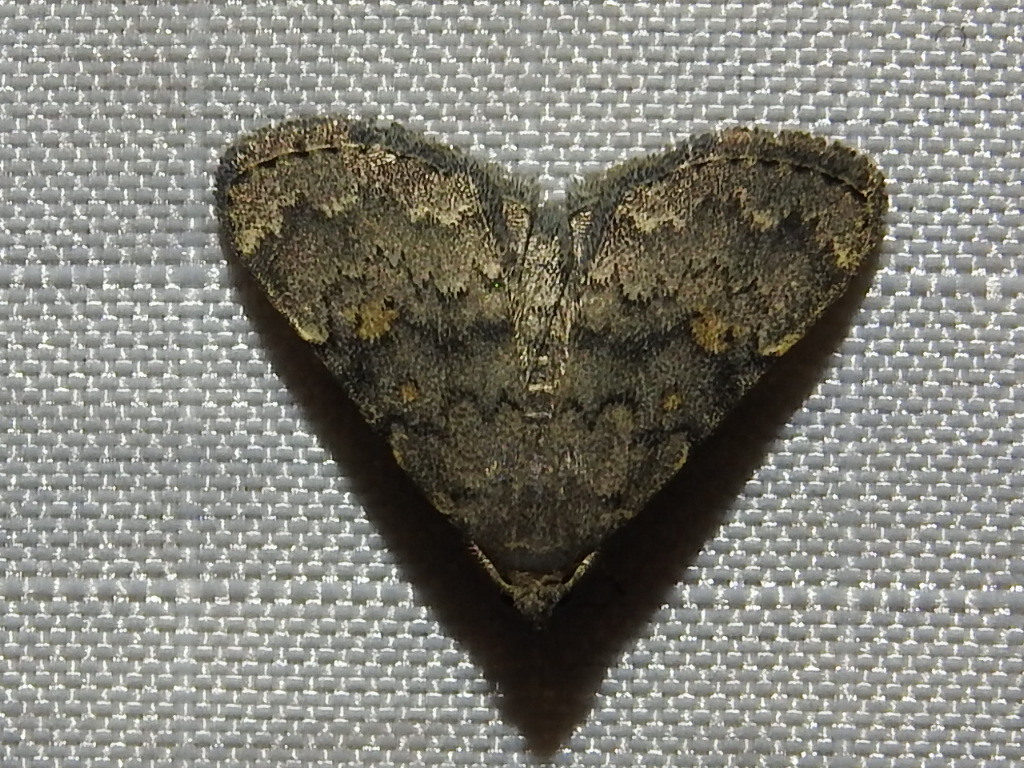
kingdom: Animalia
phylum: Arthropoda
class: Insecta
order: Lepidoptera
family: Erebidae
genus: Idia
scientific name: Idia aemula
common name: Common idia moth
